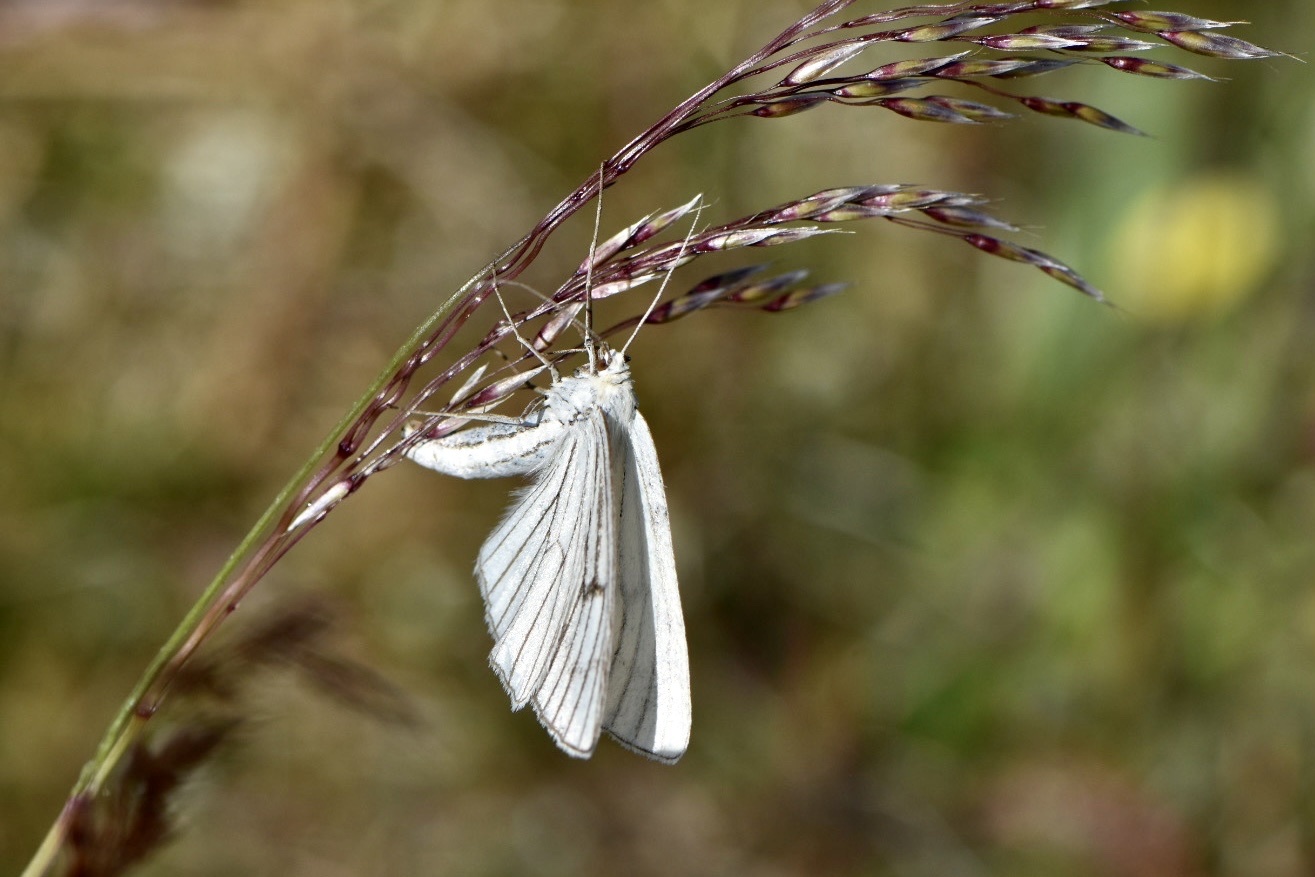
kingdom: Animalia
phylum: Arthropoda
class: Insecta
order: Lepidoptera
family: Geometridae
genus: Siona
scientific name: Siona lineata
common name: Black-veined moth
